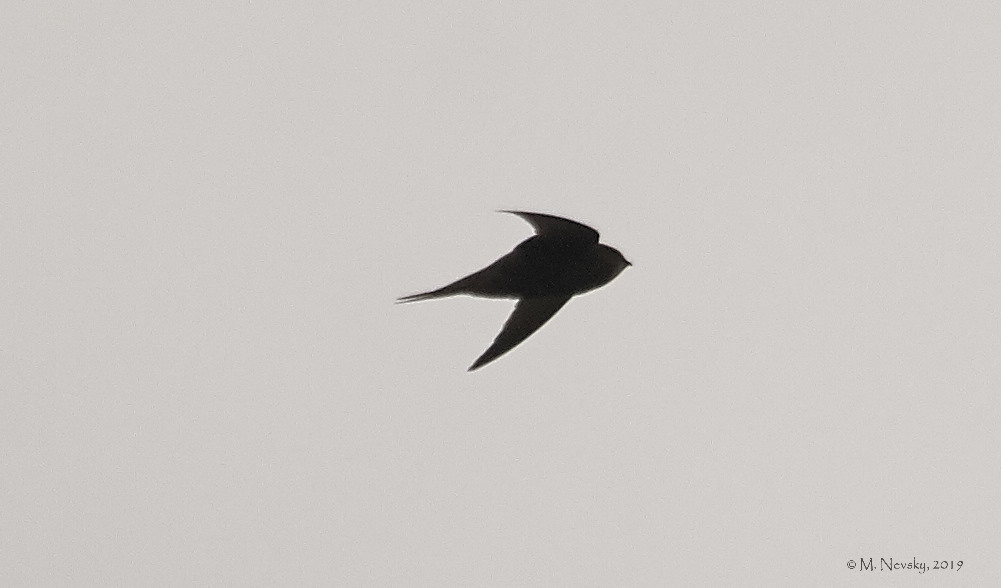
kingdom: Animalia
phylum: Chordata
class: Aves
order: Apodiformes
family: Apodidae
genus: Apus
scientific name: Apus apus
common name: Common swift
